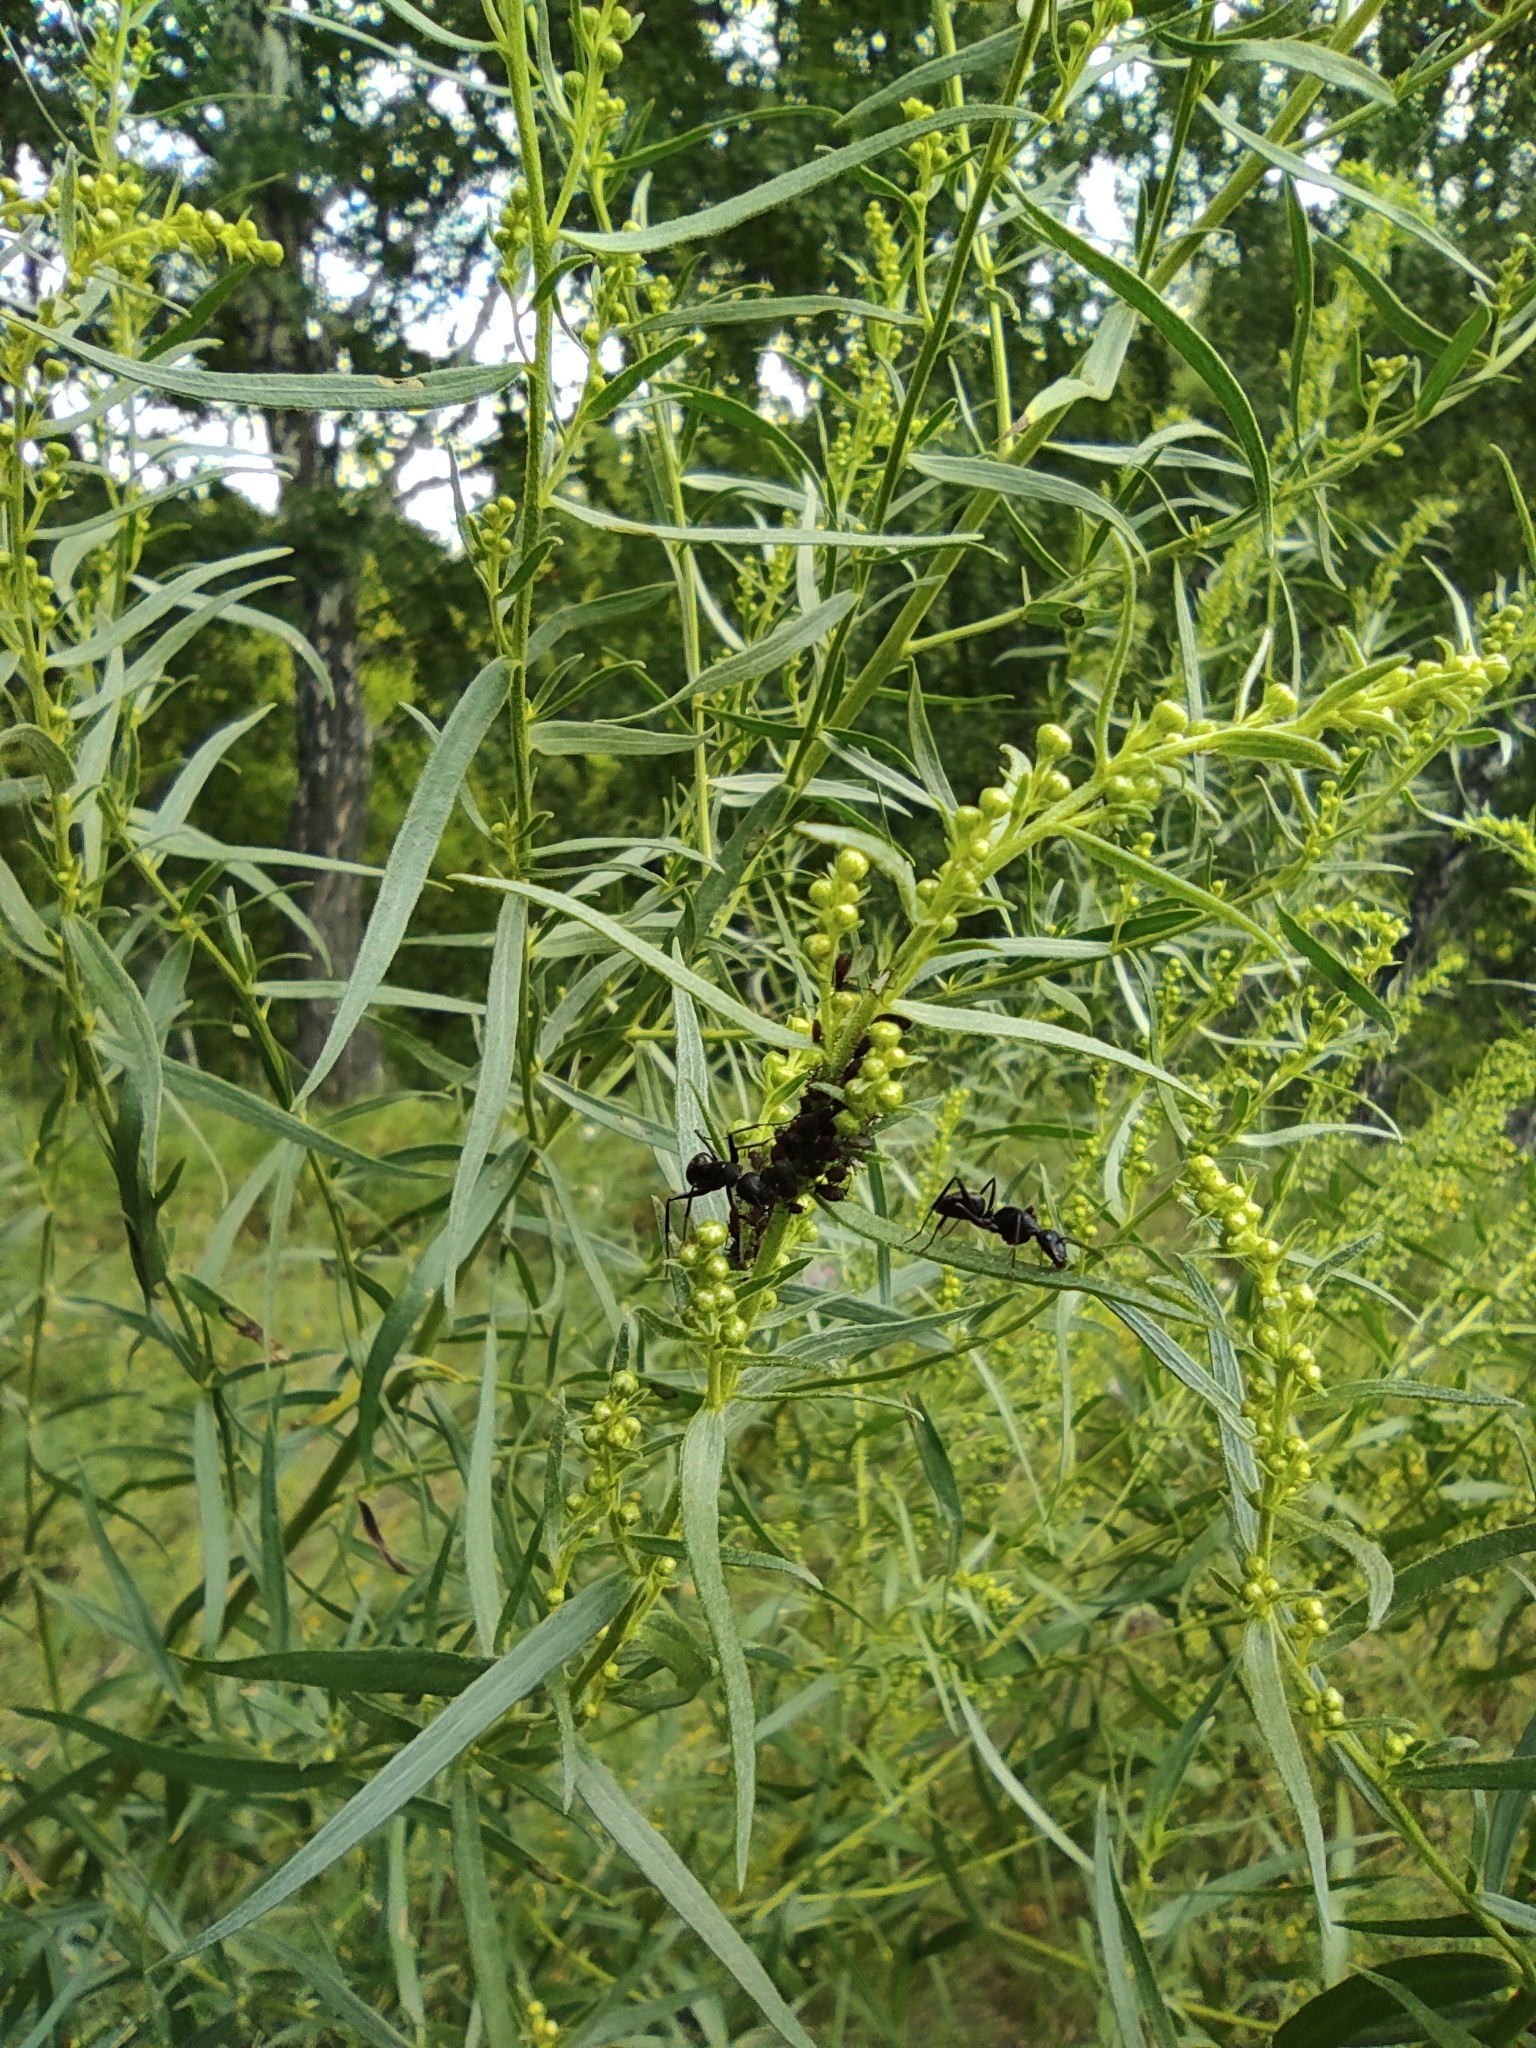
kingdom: Plantae
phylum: Tracheophyta
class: Magnoliopsida
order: Asterales
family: Asteraceae
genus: Artemisia
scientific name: Artemisia dracunculus
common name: Tarragon
